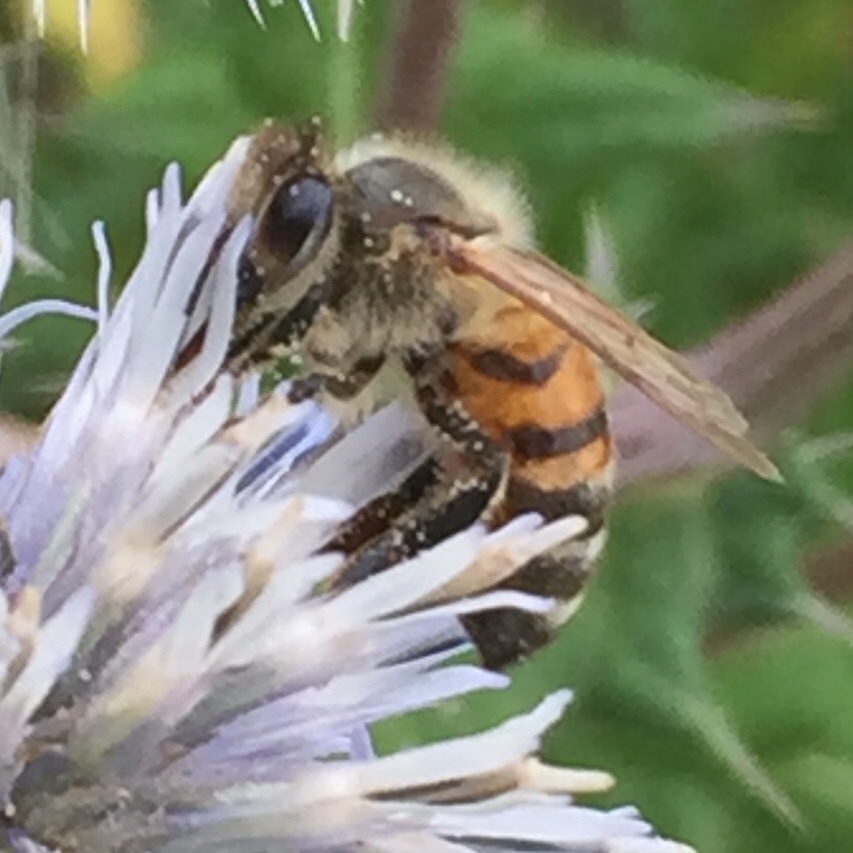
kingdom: Animalia
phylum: Arthropoda
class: Insecta
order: Hymenoptera
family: Apidae
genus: Apis
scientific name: Apis mellifera
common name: Honey bee
